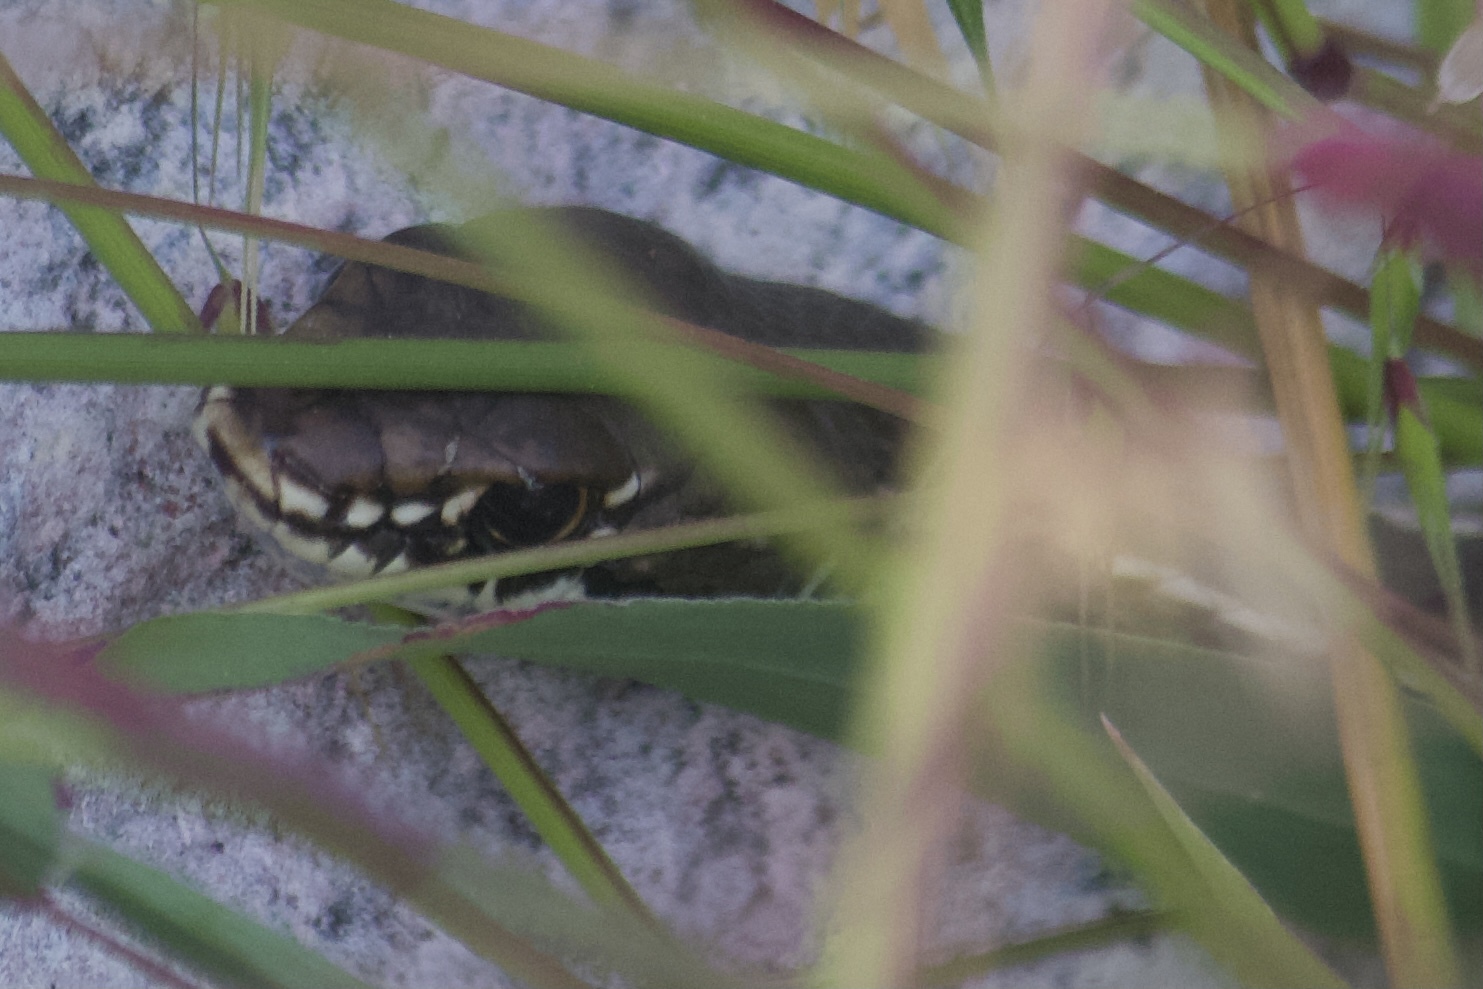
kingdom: Animalia
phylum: Chordata
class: Squamata
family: Colubridae
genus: Masticophis
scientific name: Masticophis lateralis
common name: Striped racer
